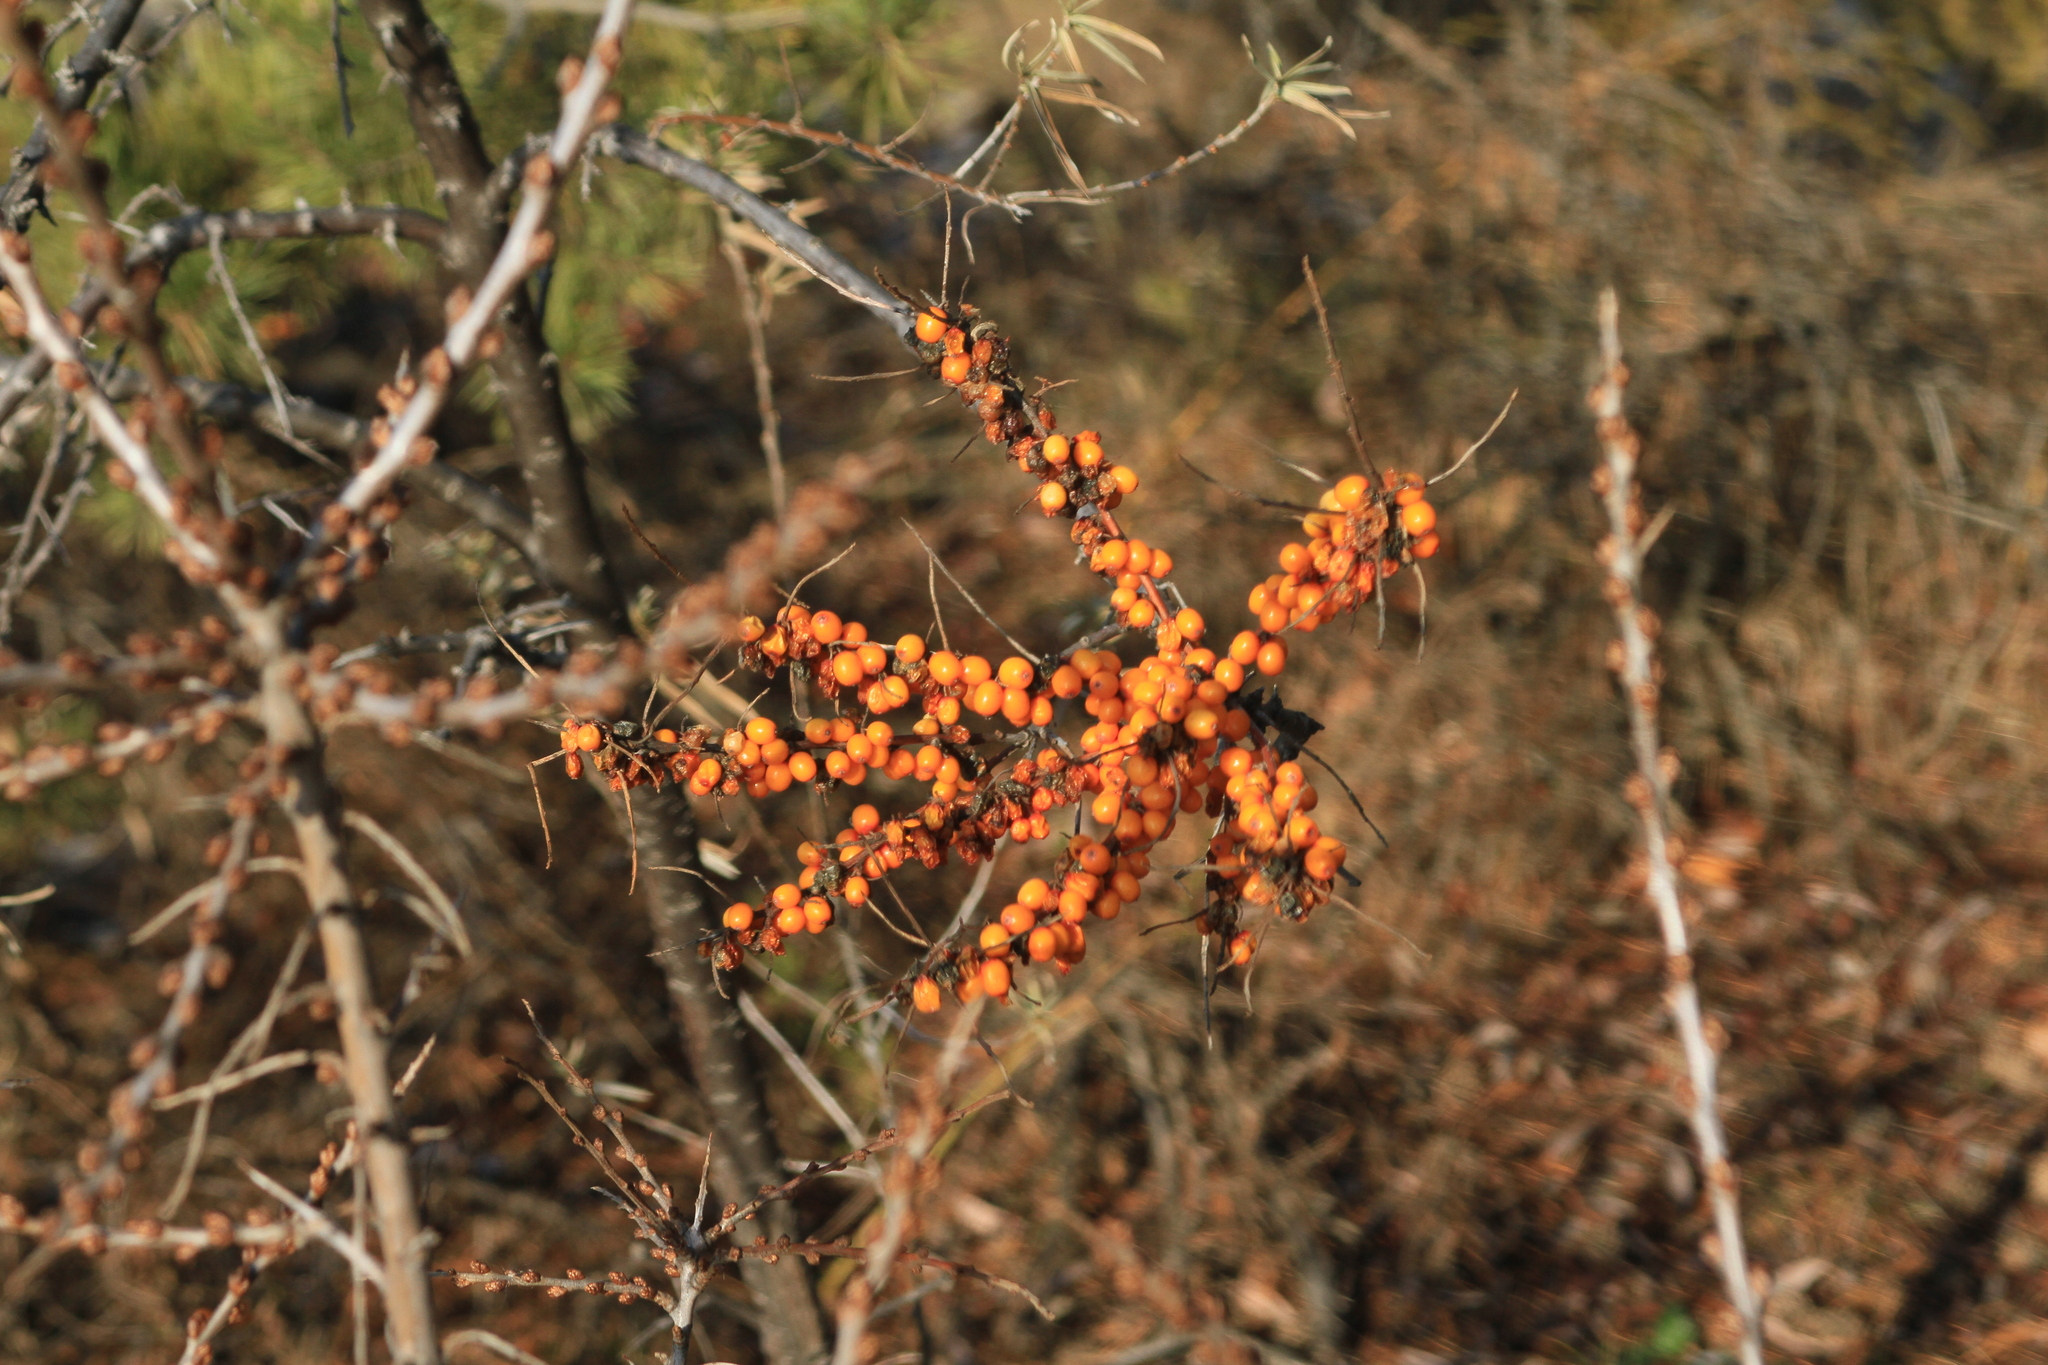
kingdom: Plantae
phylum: Tracheophyta
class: Magnoliopsida
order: Rosales
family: Elaeagnaceae
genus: Hippophae
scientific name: Hippophae rhamnoides
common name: Sea-buckthorn
